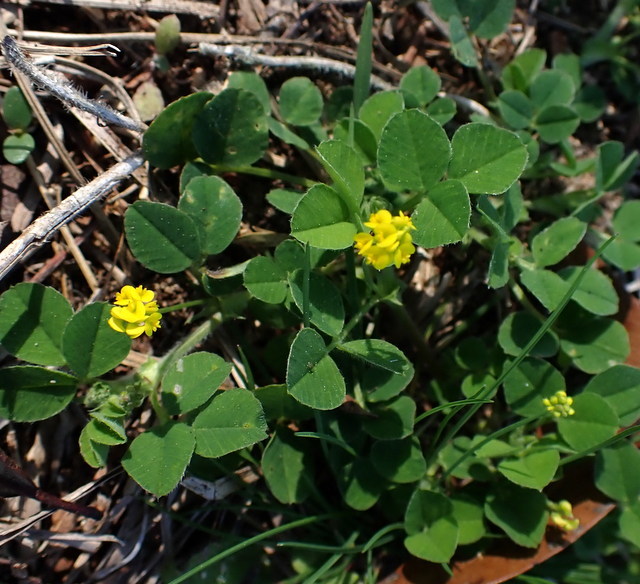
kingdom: Plantae
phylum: Tracheophyta
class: Magnoliopsida
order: Fabales
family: Fabaceae
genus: Medicago
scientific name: Medicago lupulina
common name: Black medick
